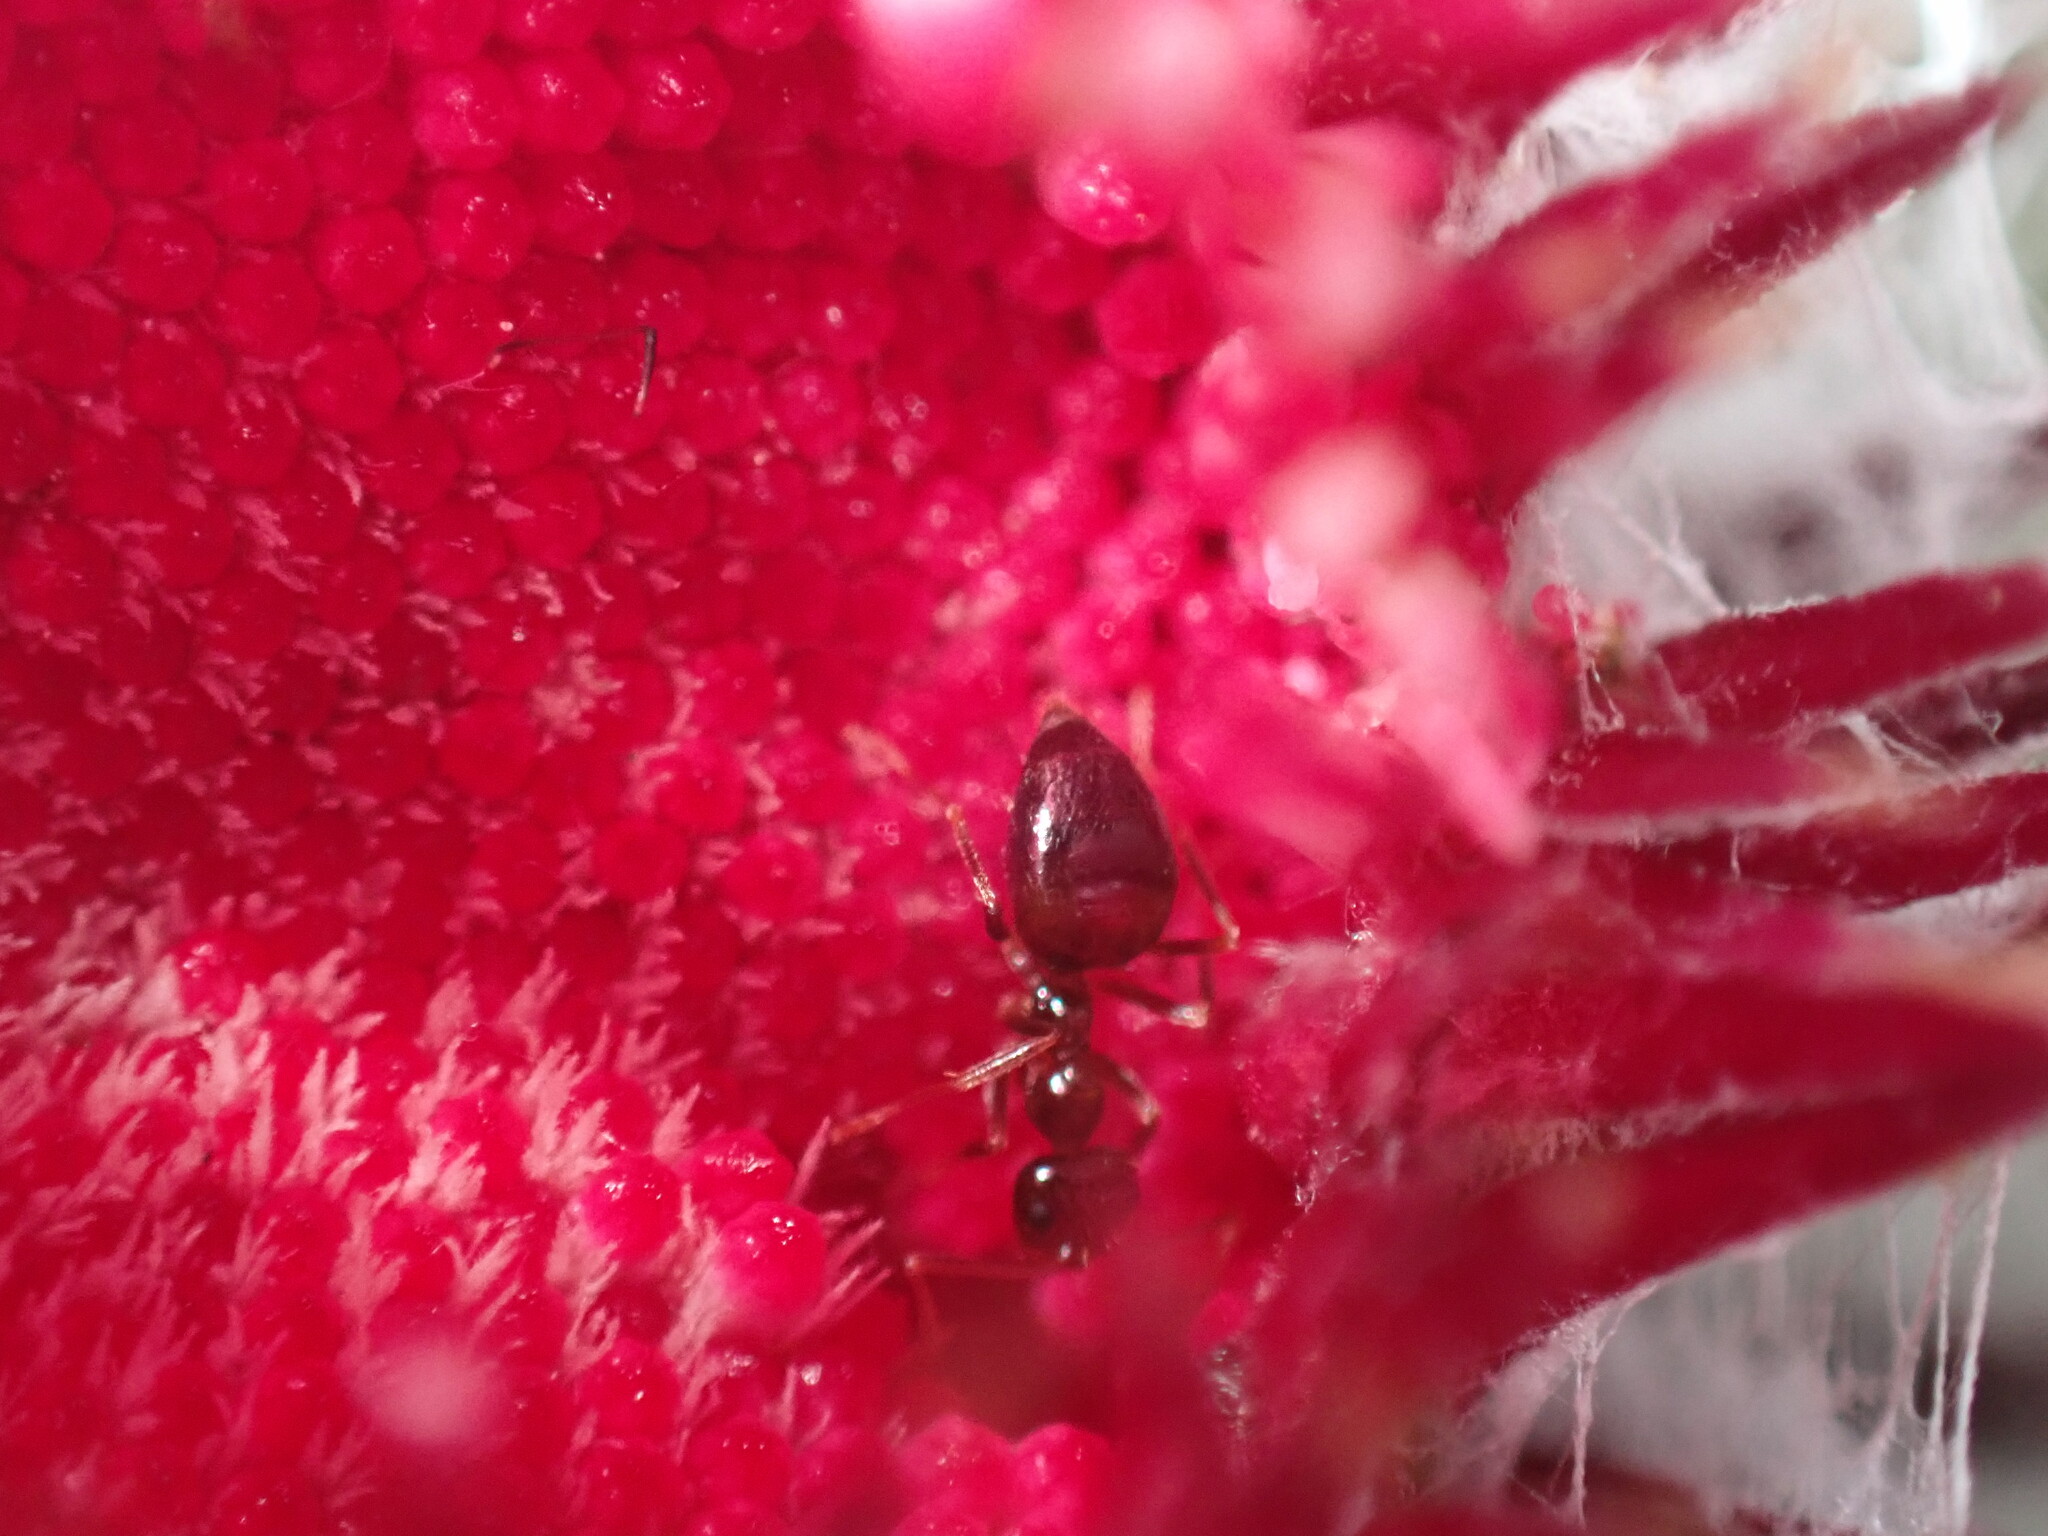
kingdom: Animalia
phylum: Arthropoda
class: Insecta
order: Hymenoptera
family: Formicidae
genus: Prenolepis
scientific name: Prenolepis imparis
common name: Small honey ant
